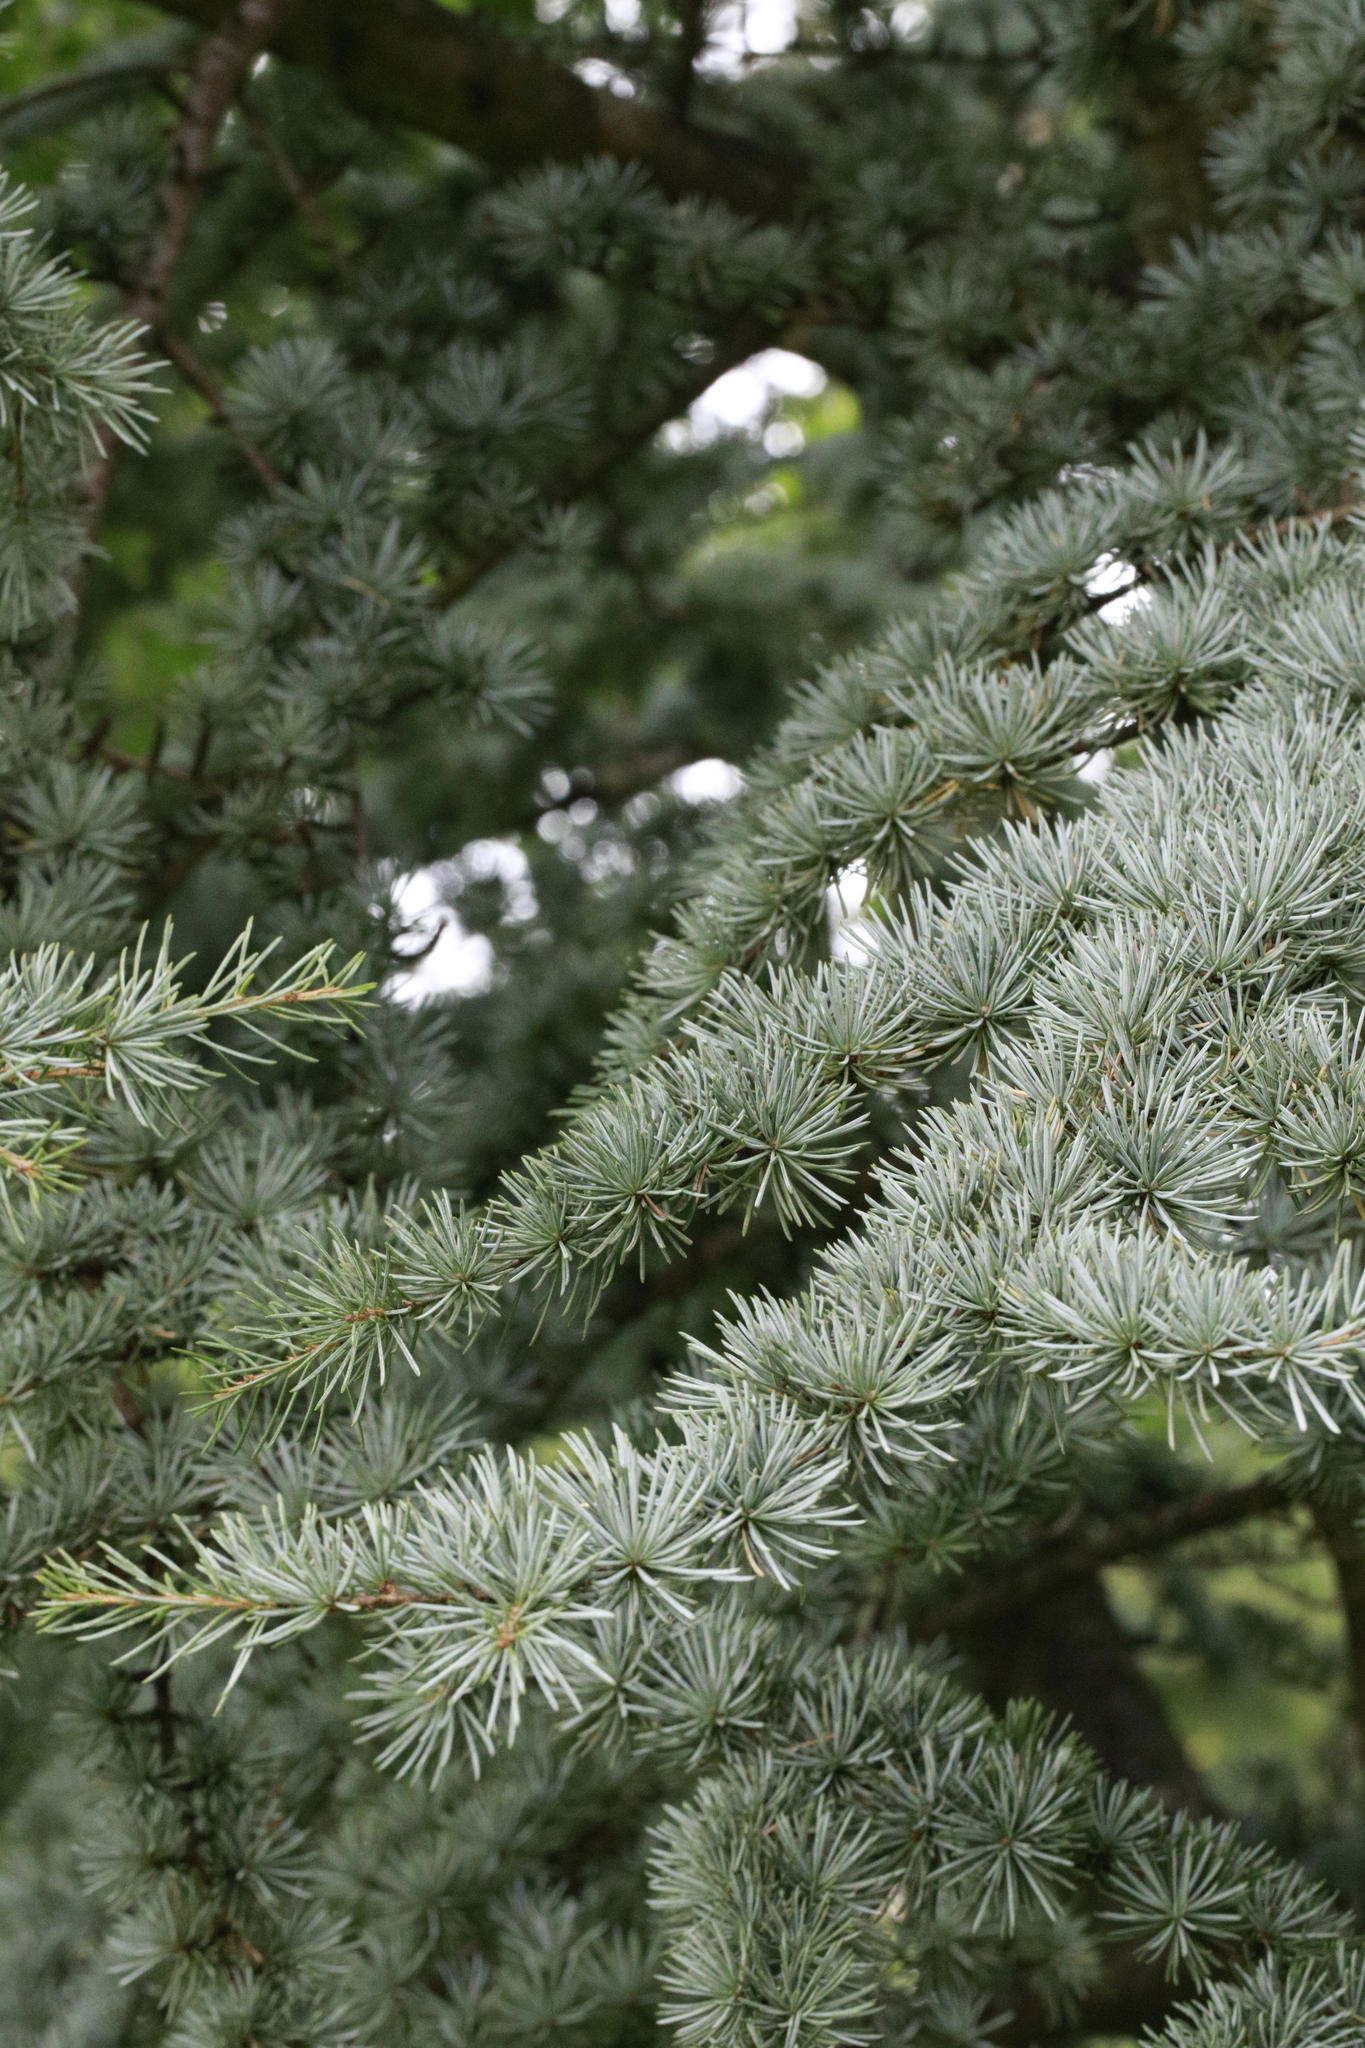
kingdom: Plantae
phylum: Tracheophyta
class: Pinopsida
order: Pinales
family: Pinaceae
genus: Cedrus
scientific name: Cedrus atlantica
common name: Atlas cedar
